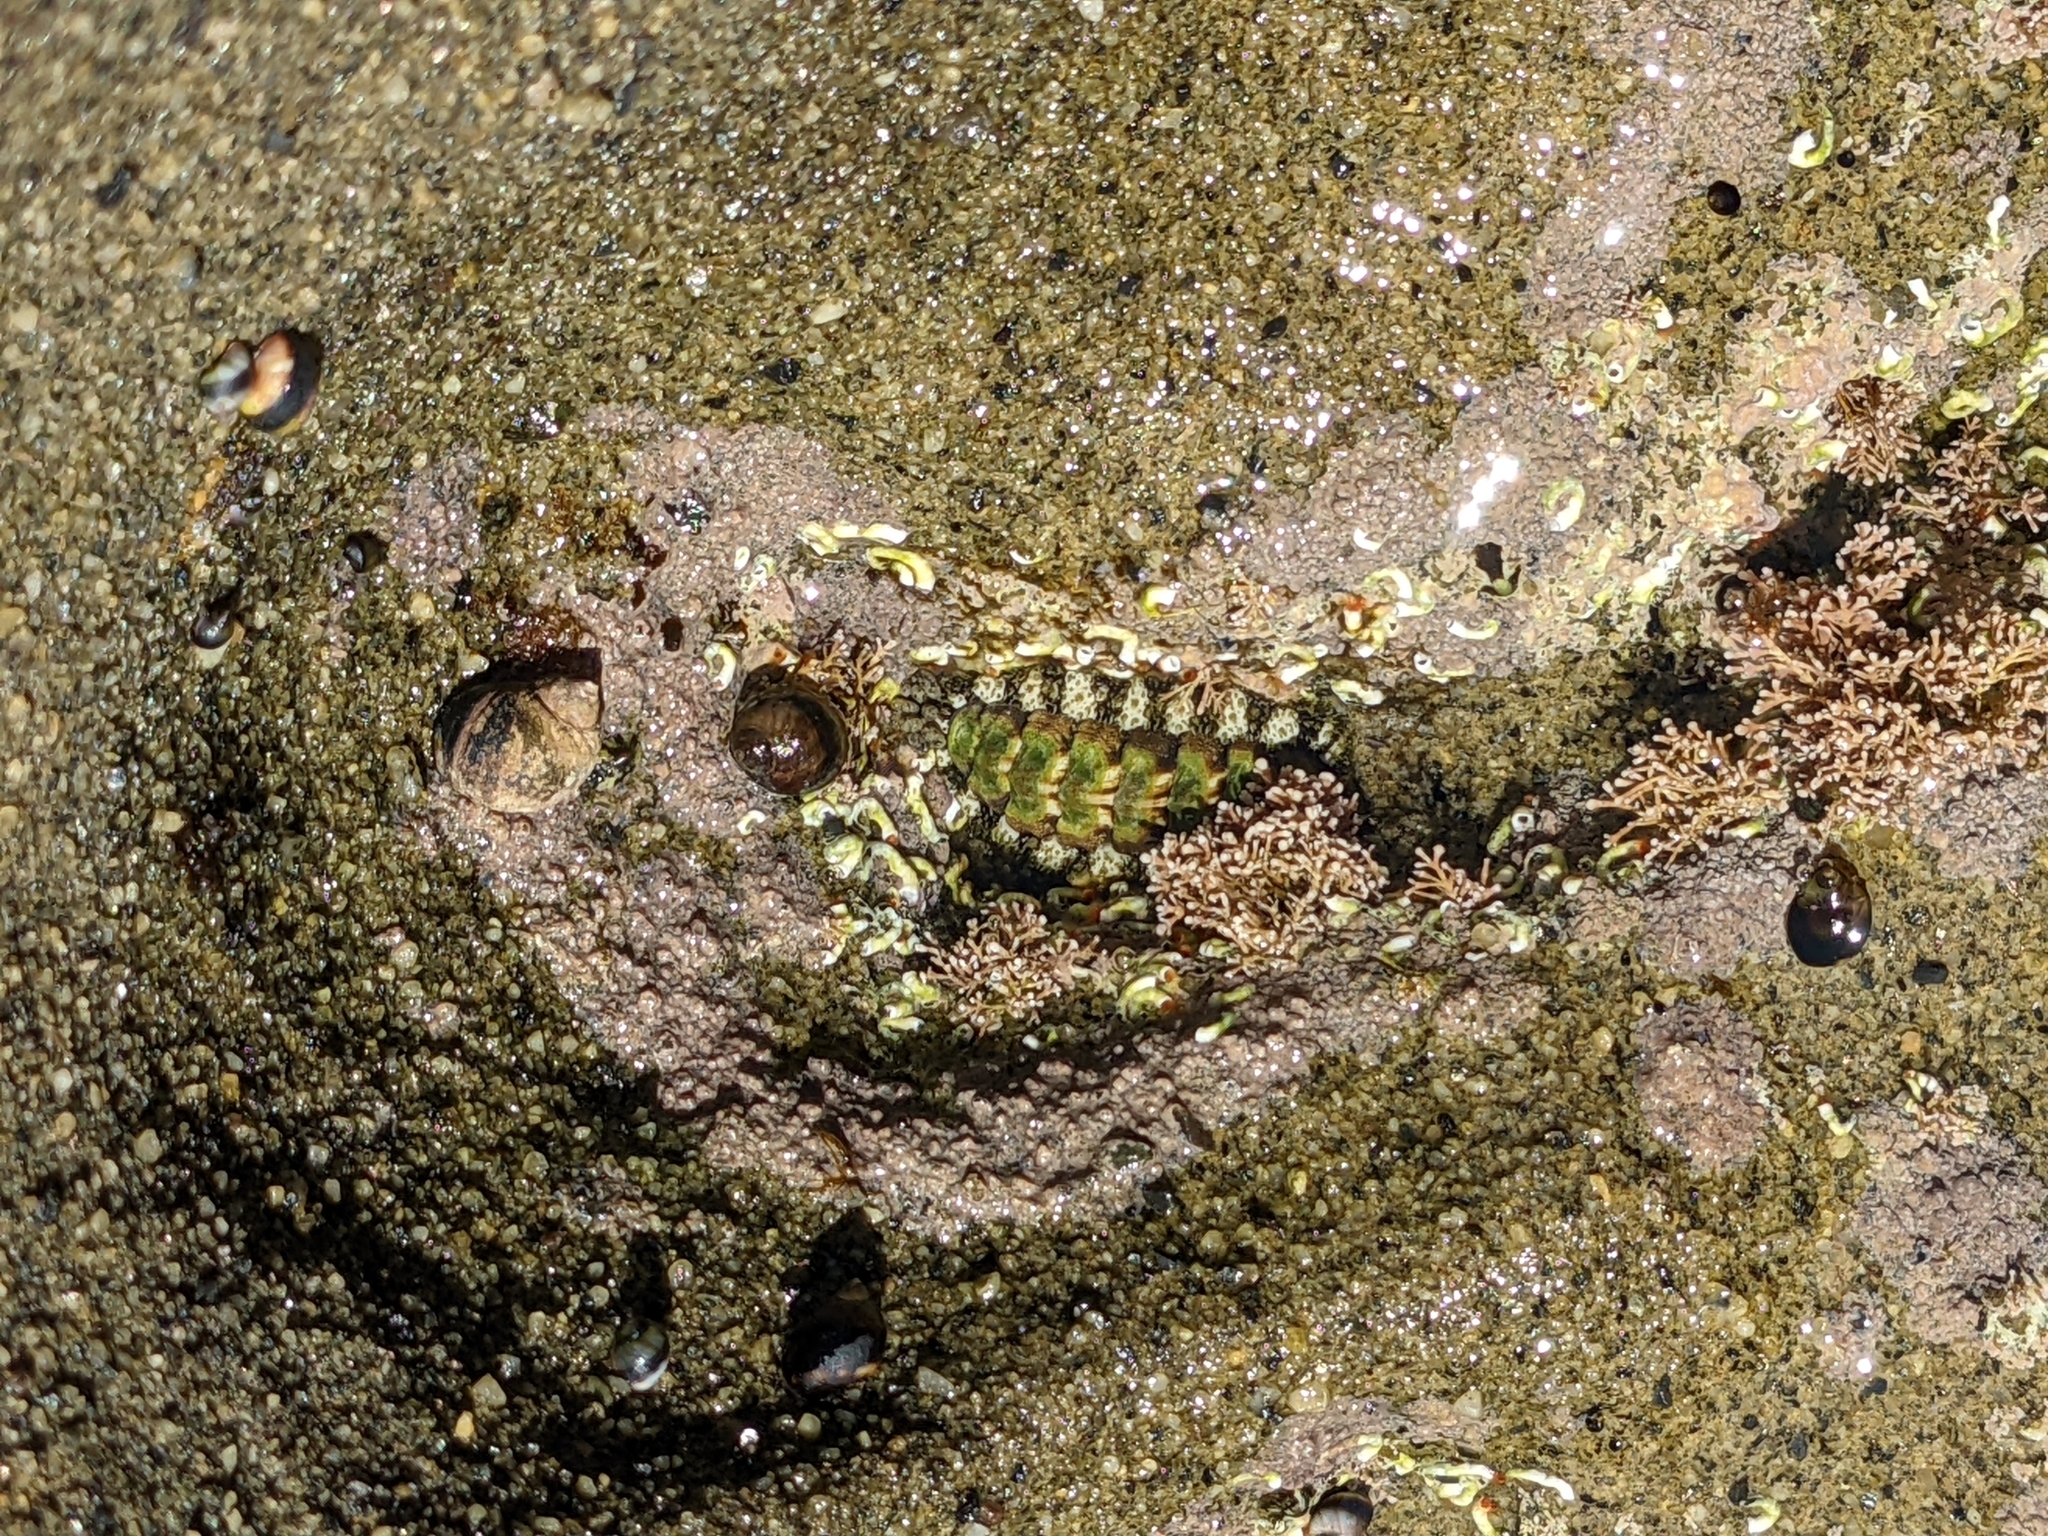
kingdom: Animalia
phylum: Mollusca
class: Polyplacophora
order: Chitonida
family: Tonicellidae
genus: Nuttallina
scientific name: Nuttallina californica
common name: California nuttall chiton
